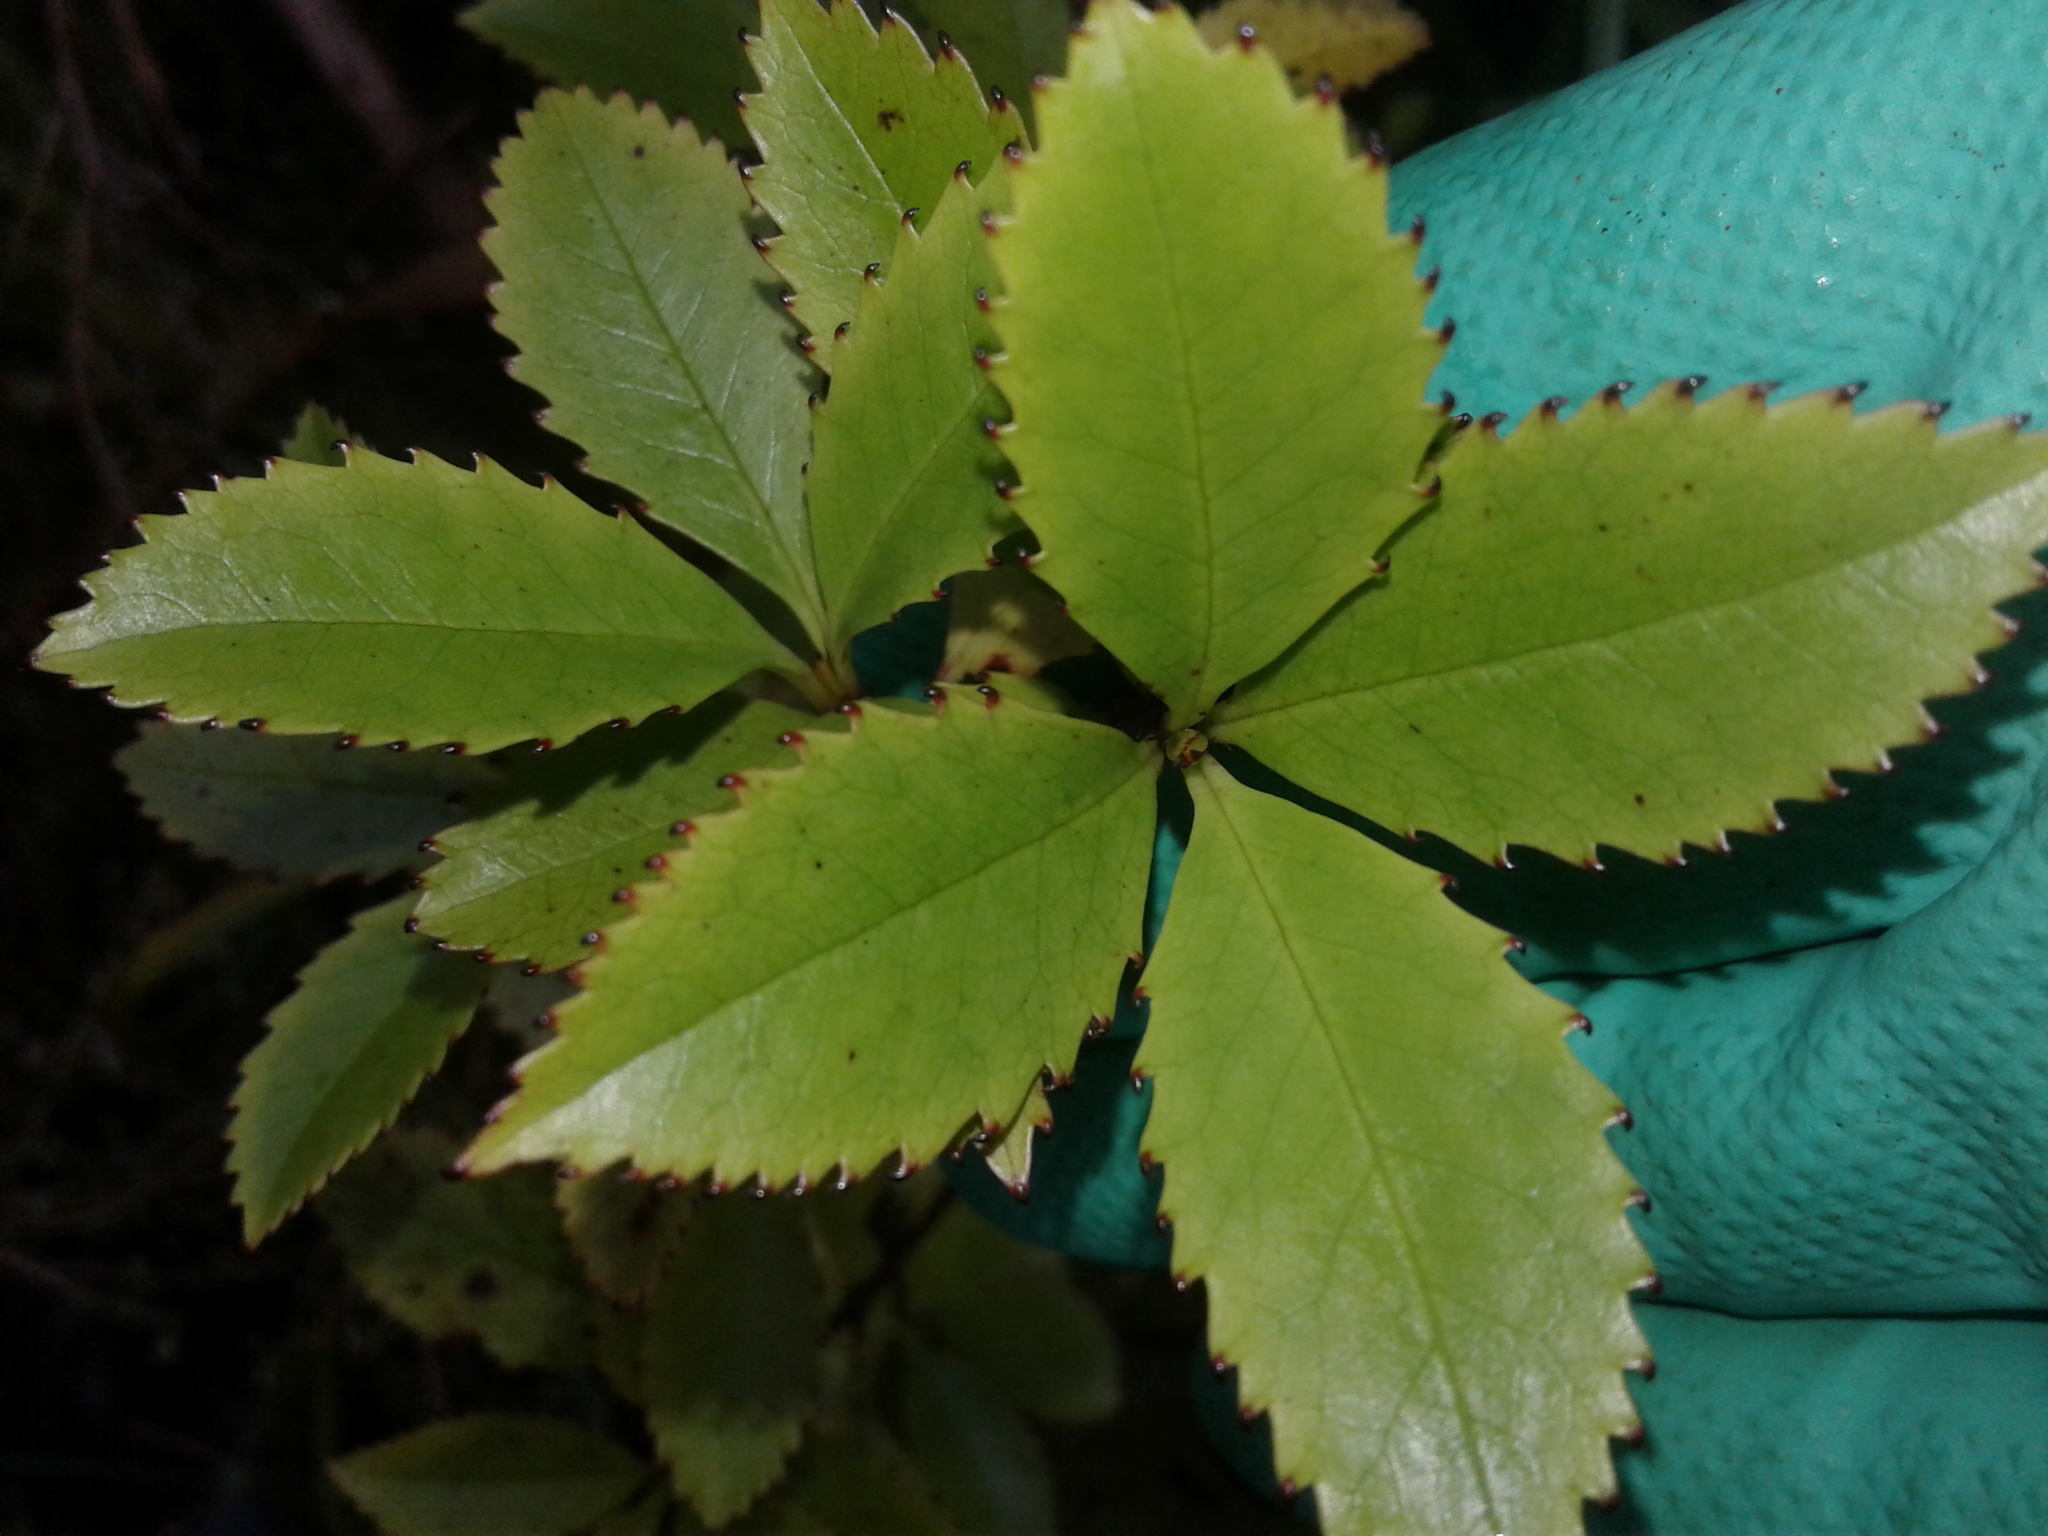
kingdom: Plantae
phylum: Tracheophyta
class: Magnoliopsida
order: Chloranthales
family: Chloranthaceae
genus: Ascarina
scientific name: Ascarina lucida
